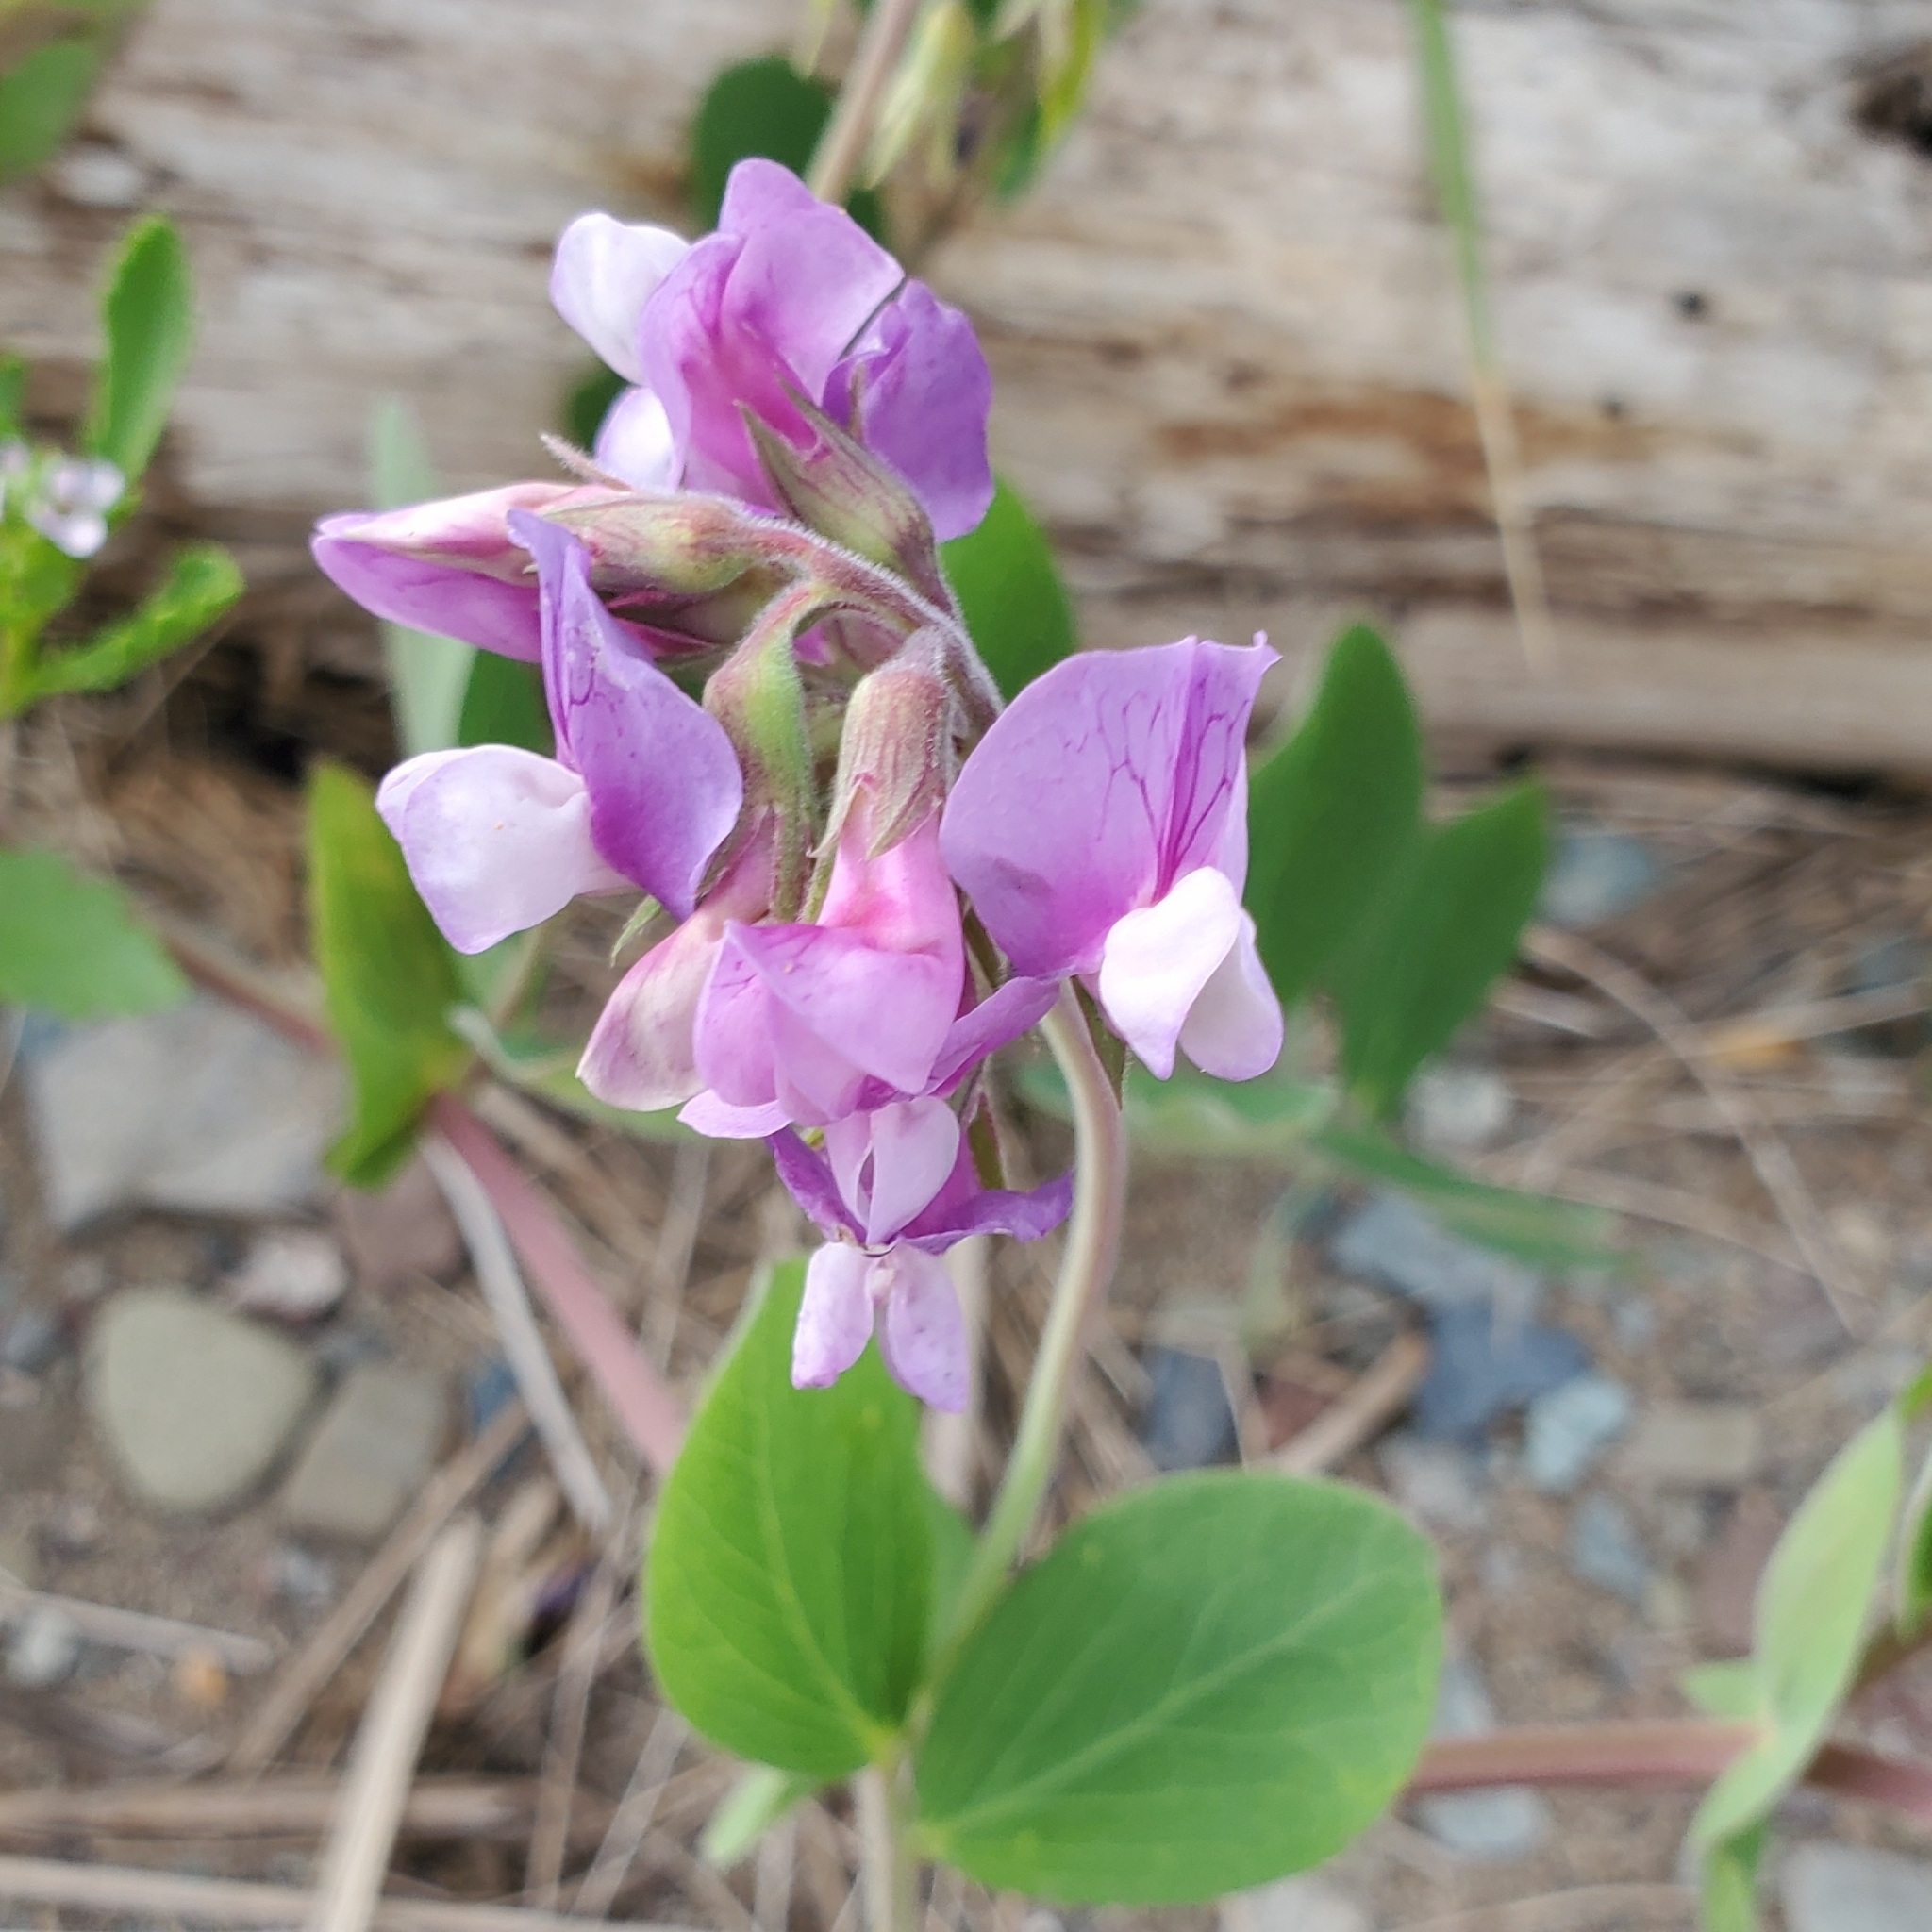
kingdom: Plantae
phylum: Tracheophyta
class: Magnoliopsida
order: Fabales
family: Fabaceae
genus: Lathyrus
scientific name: Lathyrus japonicus
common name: Sea pea
